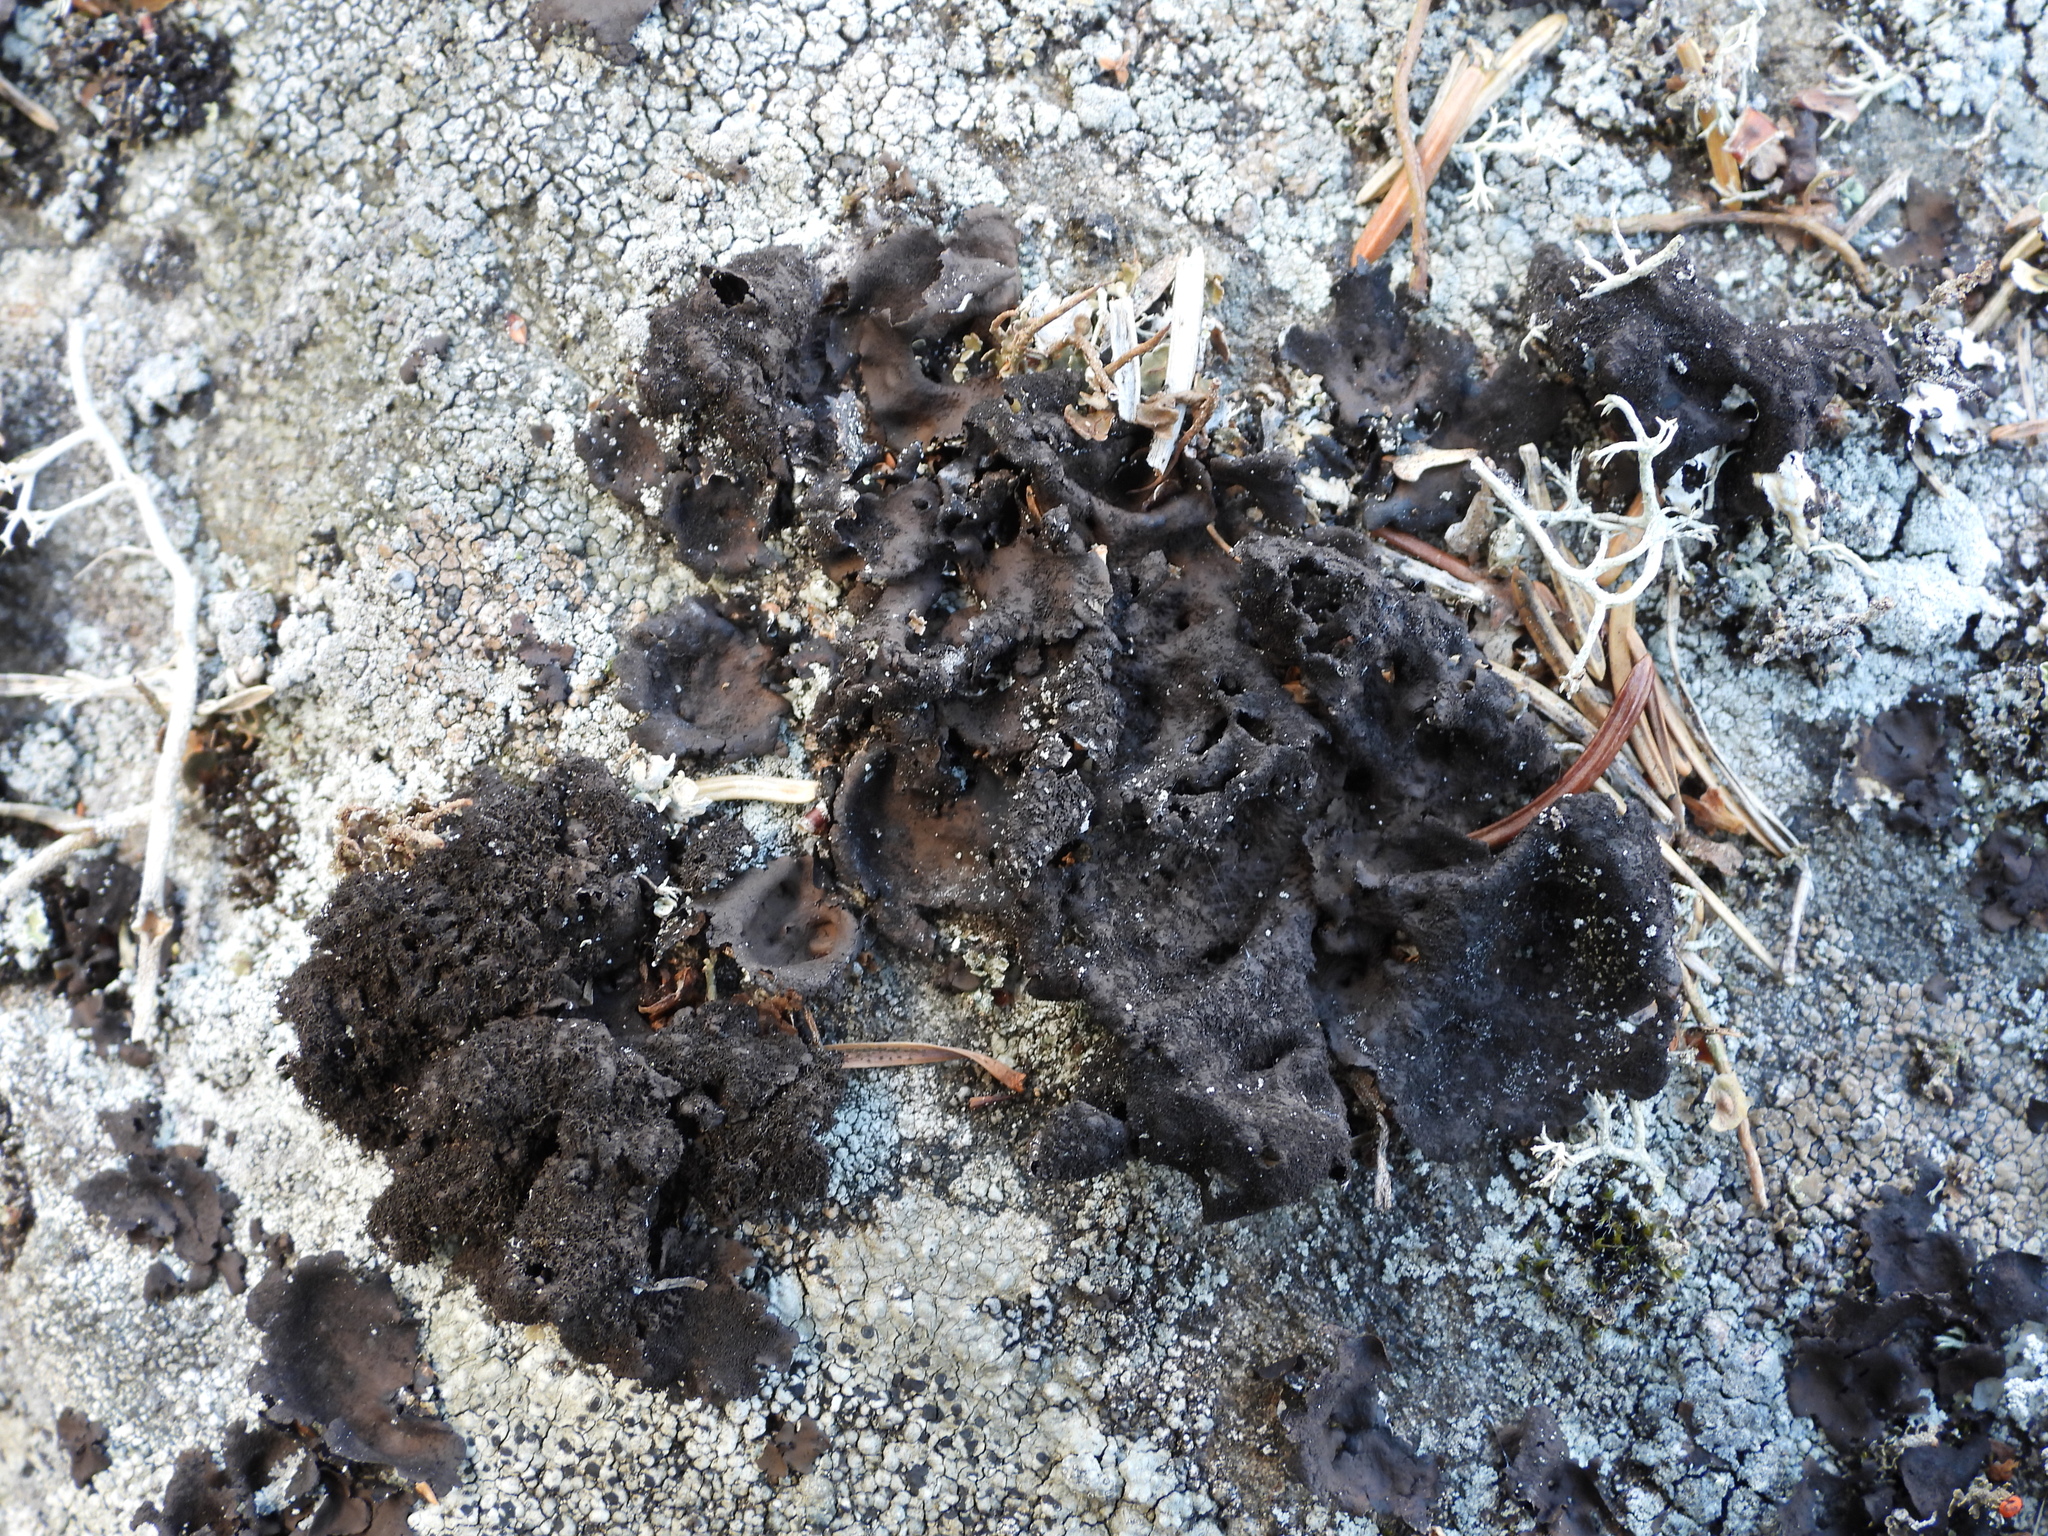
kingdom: Fungi
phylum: Ascomycota
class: Lecanoromycetes
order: Umbilicariales
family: Umbilicariaceae
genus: Umbilicaria
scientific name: Umbilicaria deusta
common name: Peppered rock tripe
